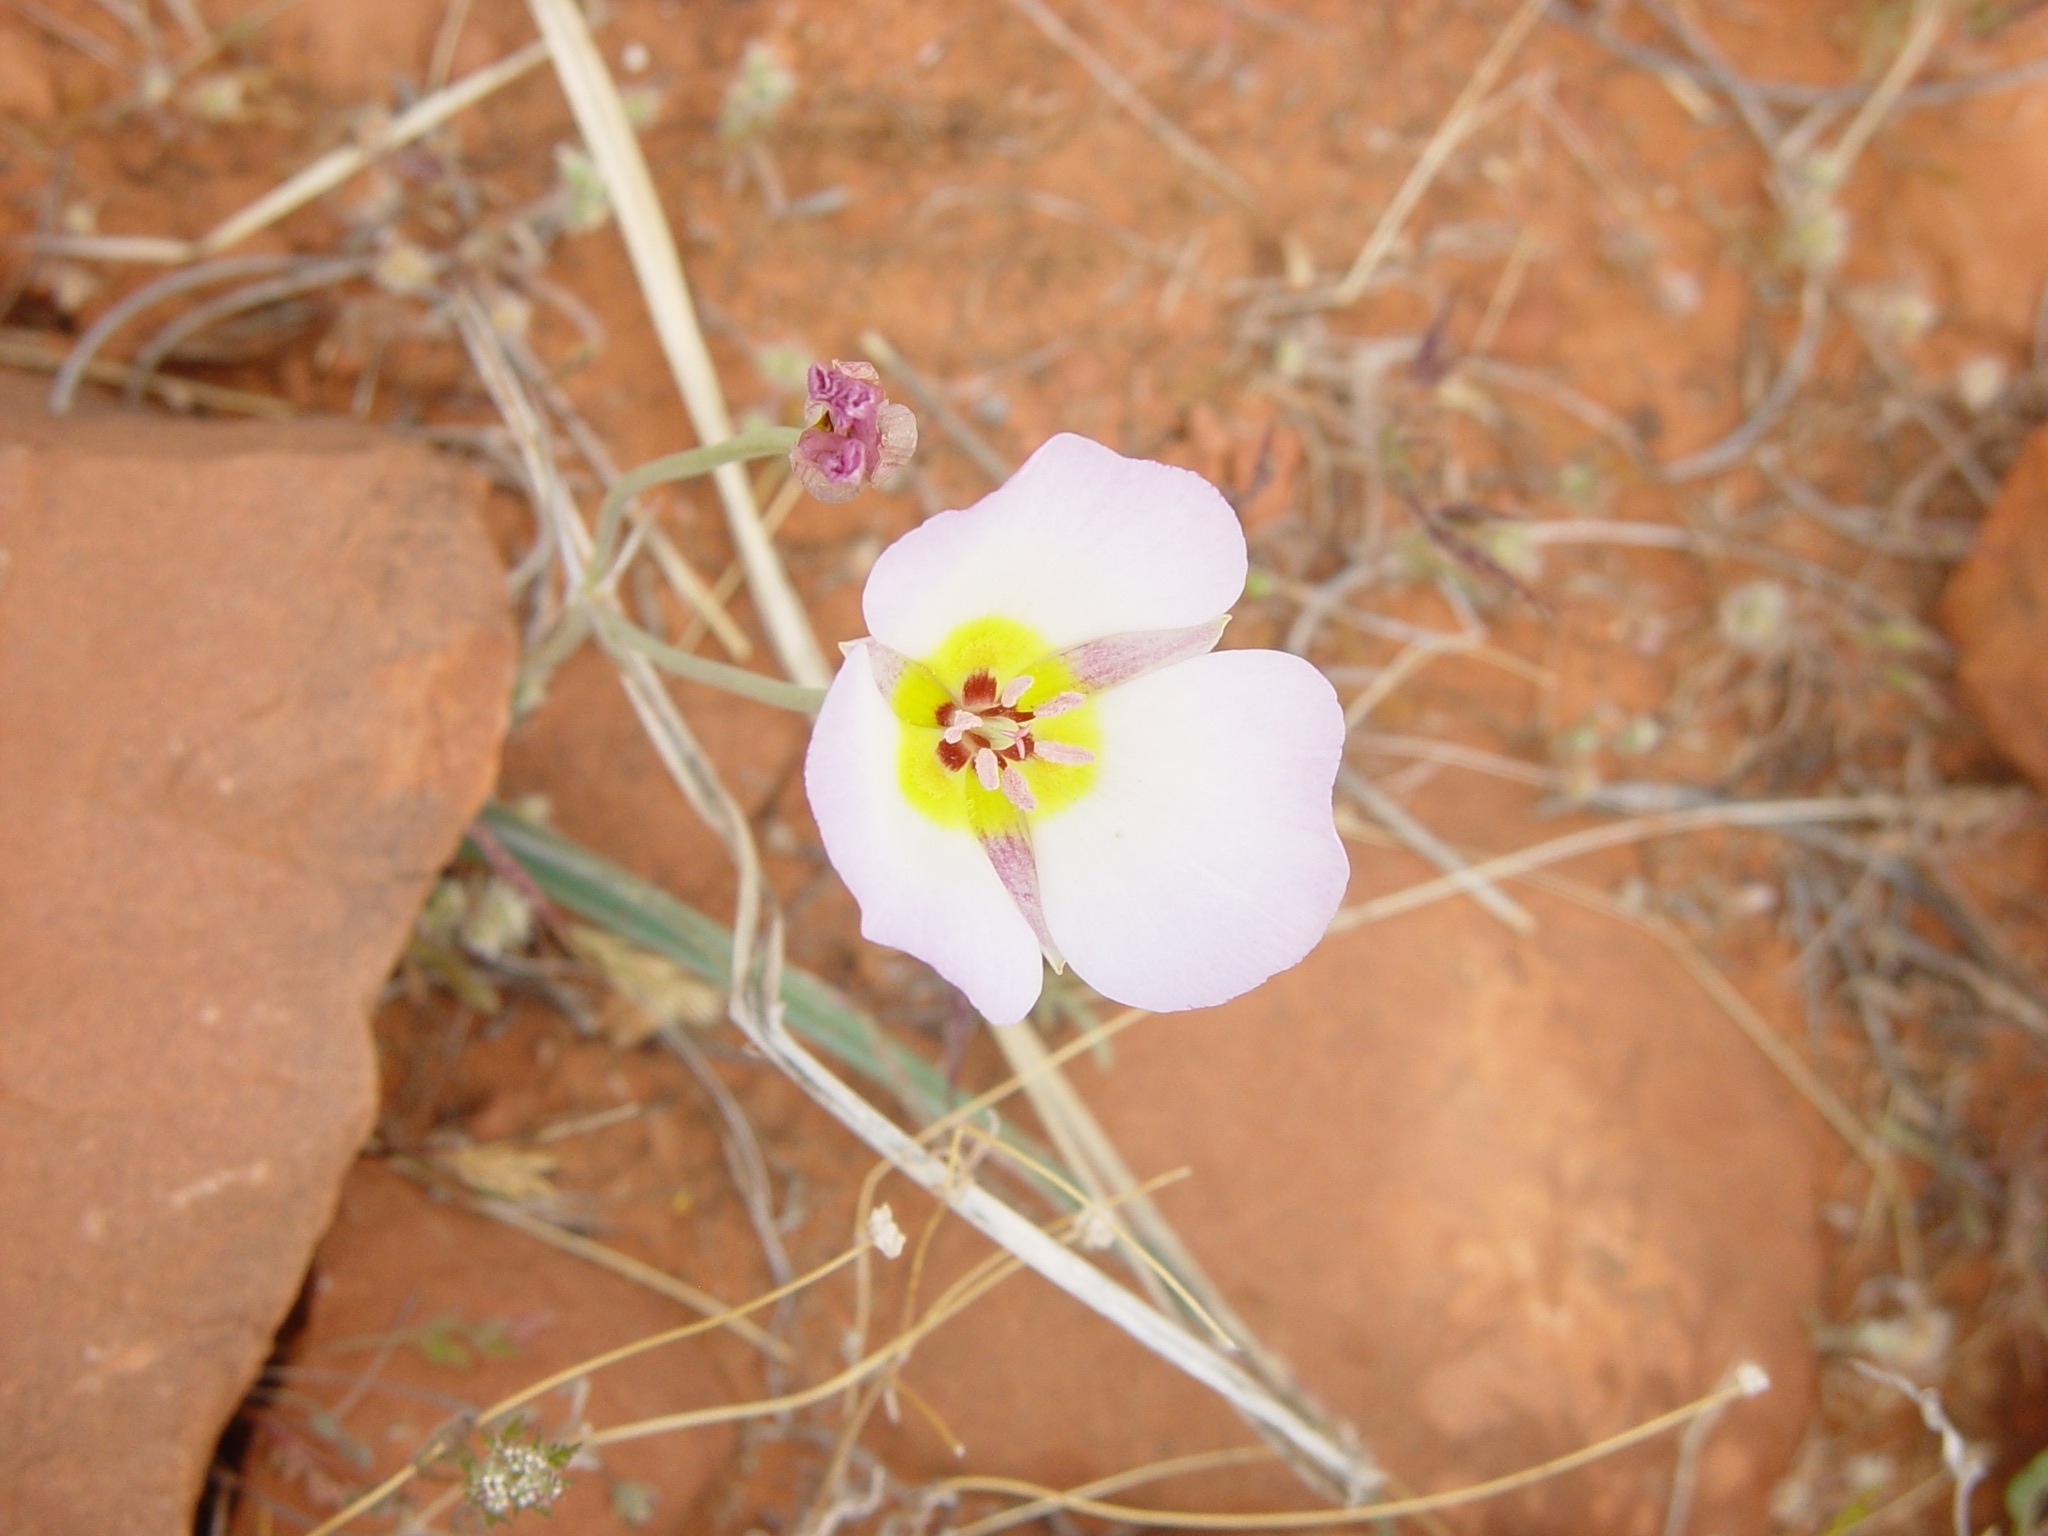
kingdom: Plantae
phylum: Tracheophyta
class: Liliopsida
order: Liliales
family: Liliaceae
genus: Calochortus
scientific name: Calochortus flexuosus
